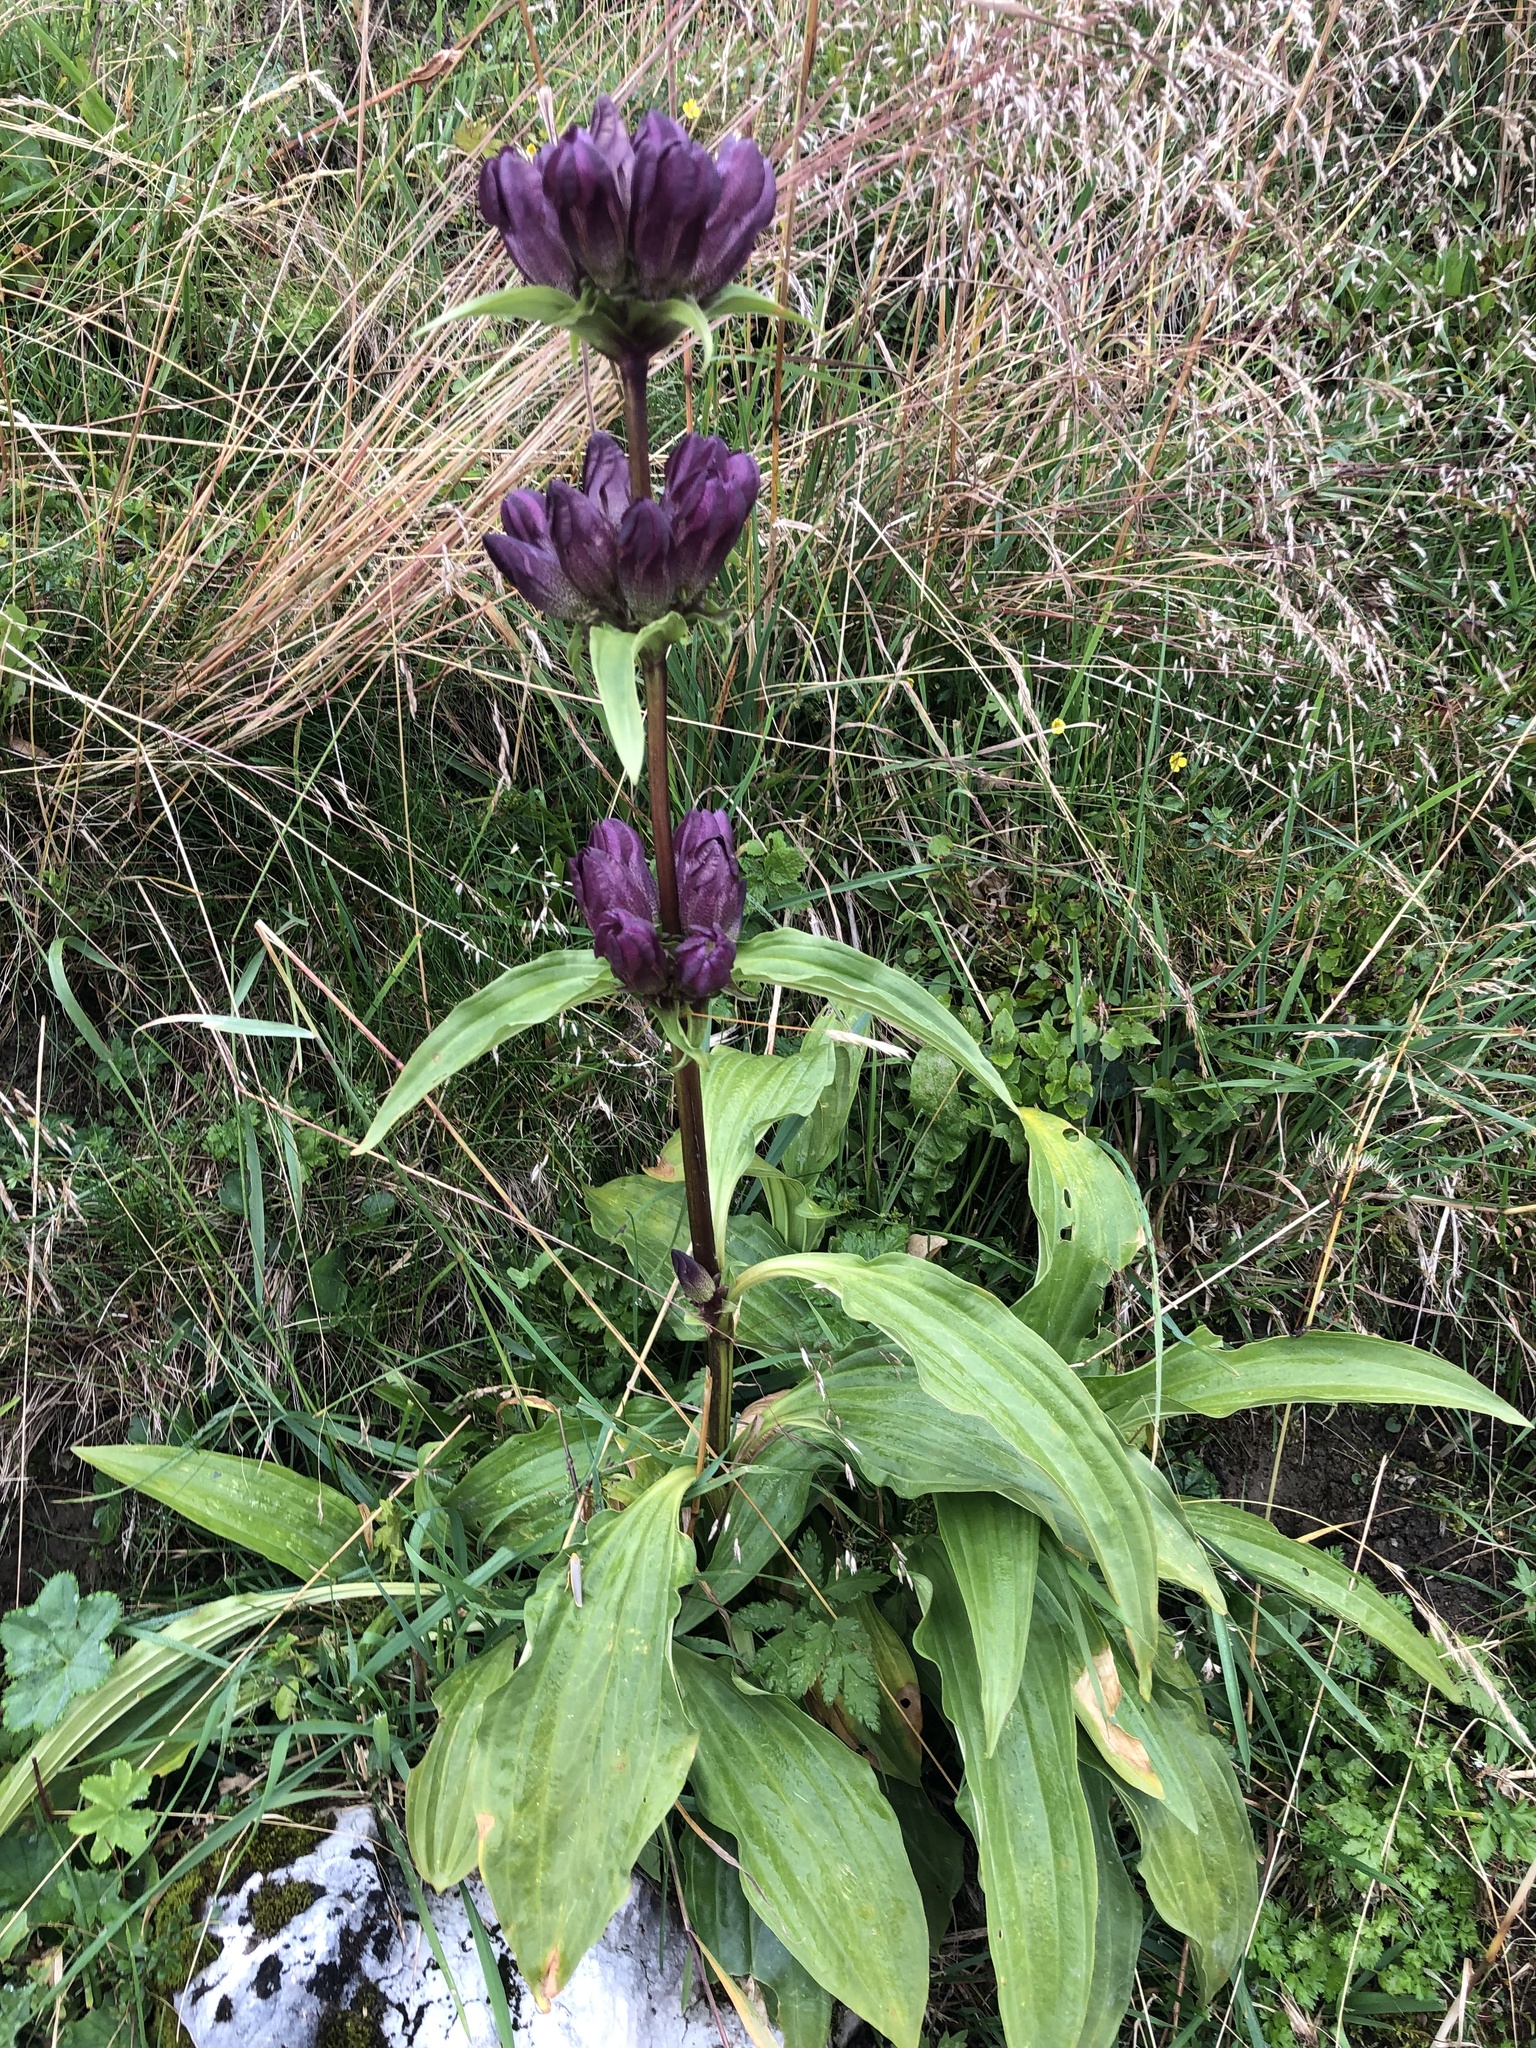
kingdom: Plantae
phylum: Tracheophyta
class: Magnoliopsida
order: Gentianales
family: Gentianaceae
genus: Gentiana
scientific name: Gentiana pannonica
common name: Hungarian gentian
